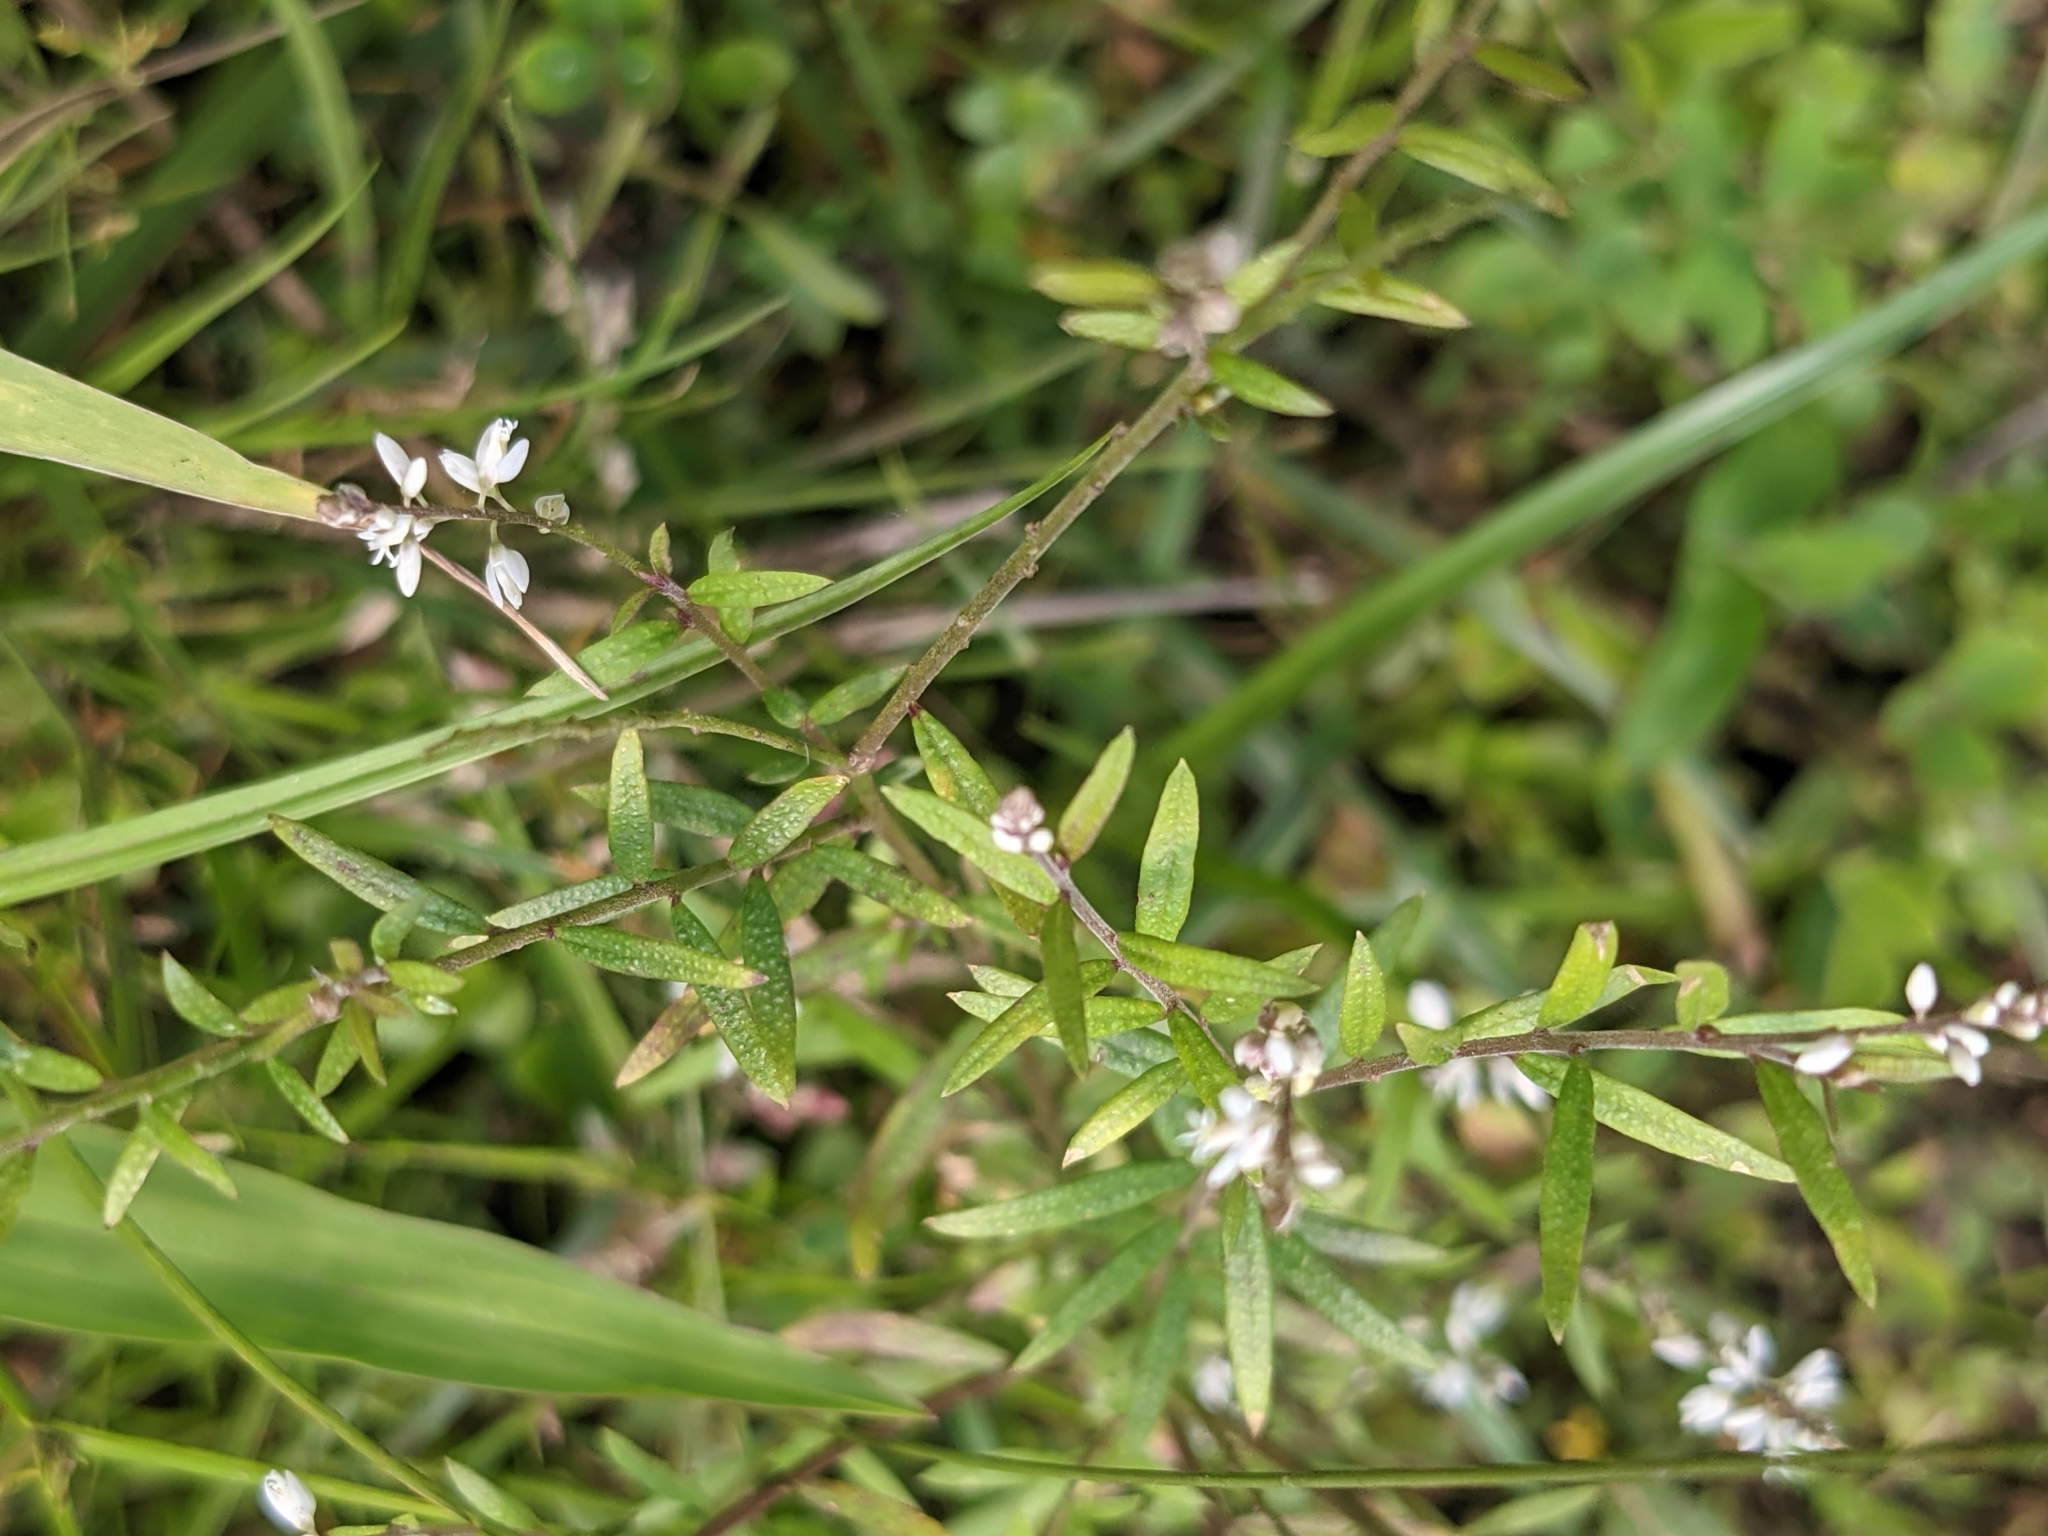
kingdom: Plantae
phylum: Tracheophyta
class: Magnoliopsida
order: Fabales
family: Polygalaceae
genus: Polygala
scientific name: Polygala paniculata
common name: Orosne
